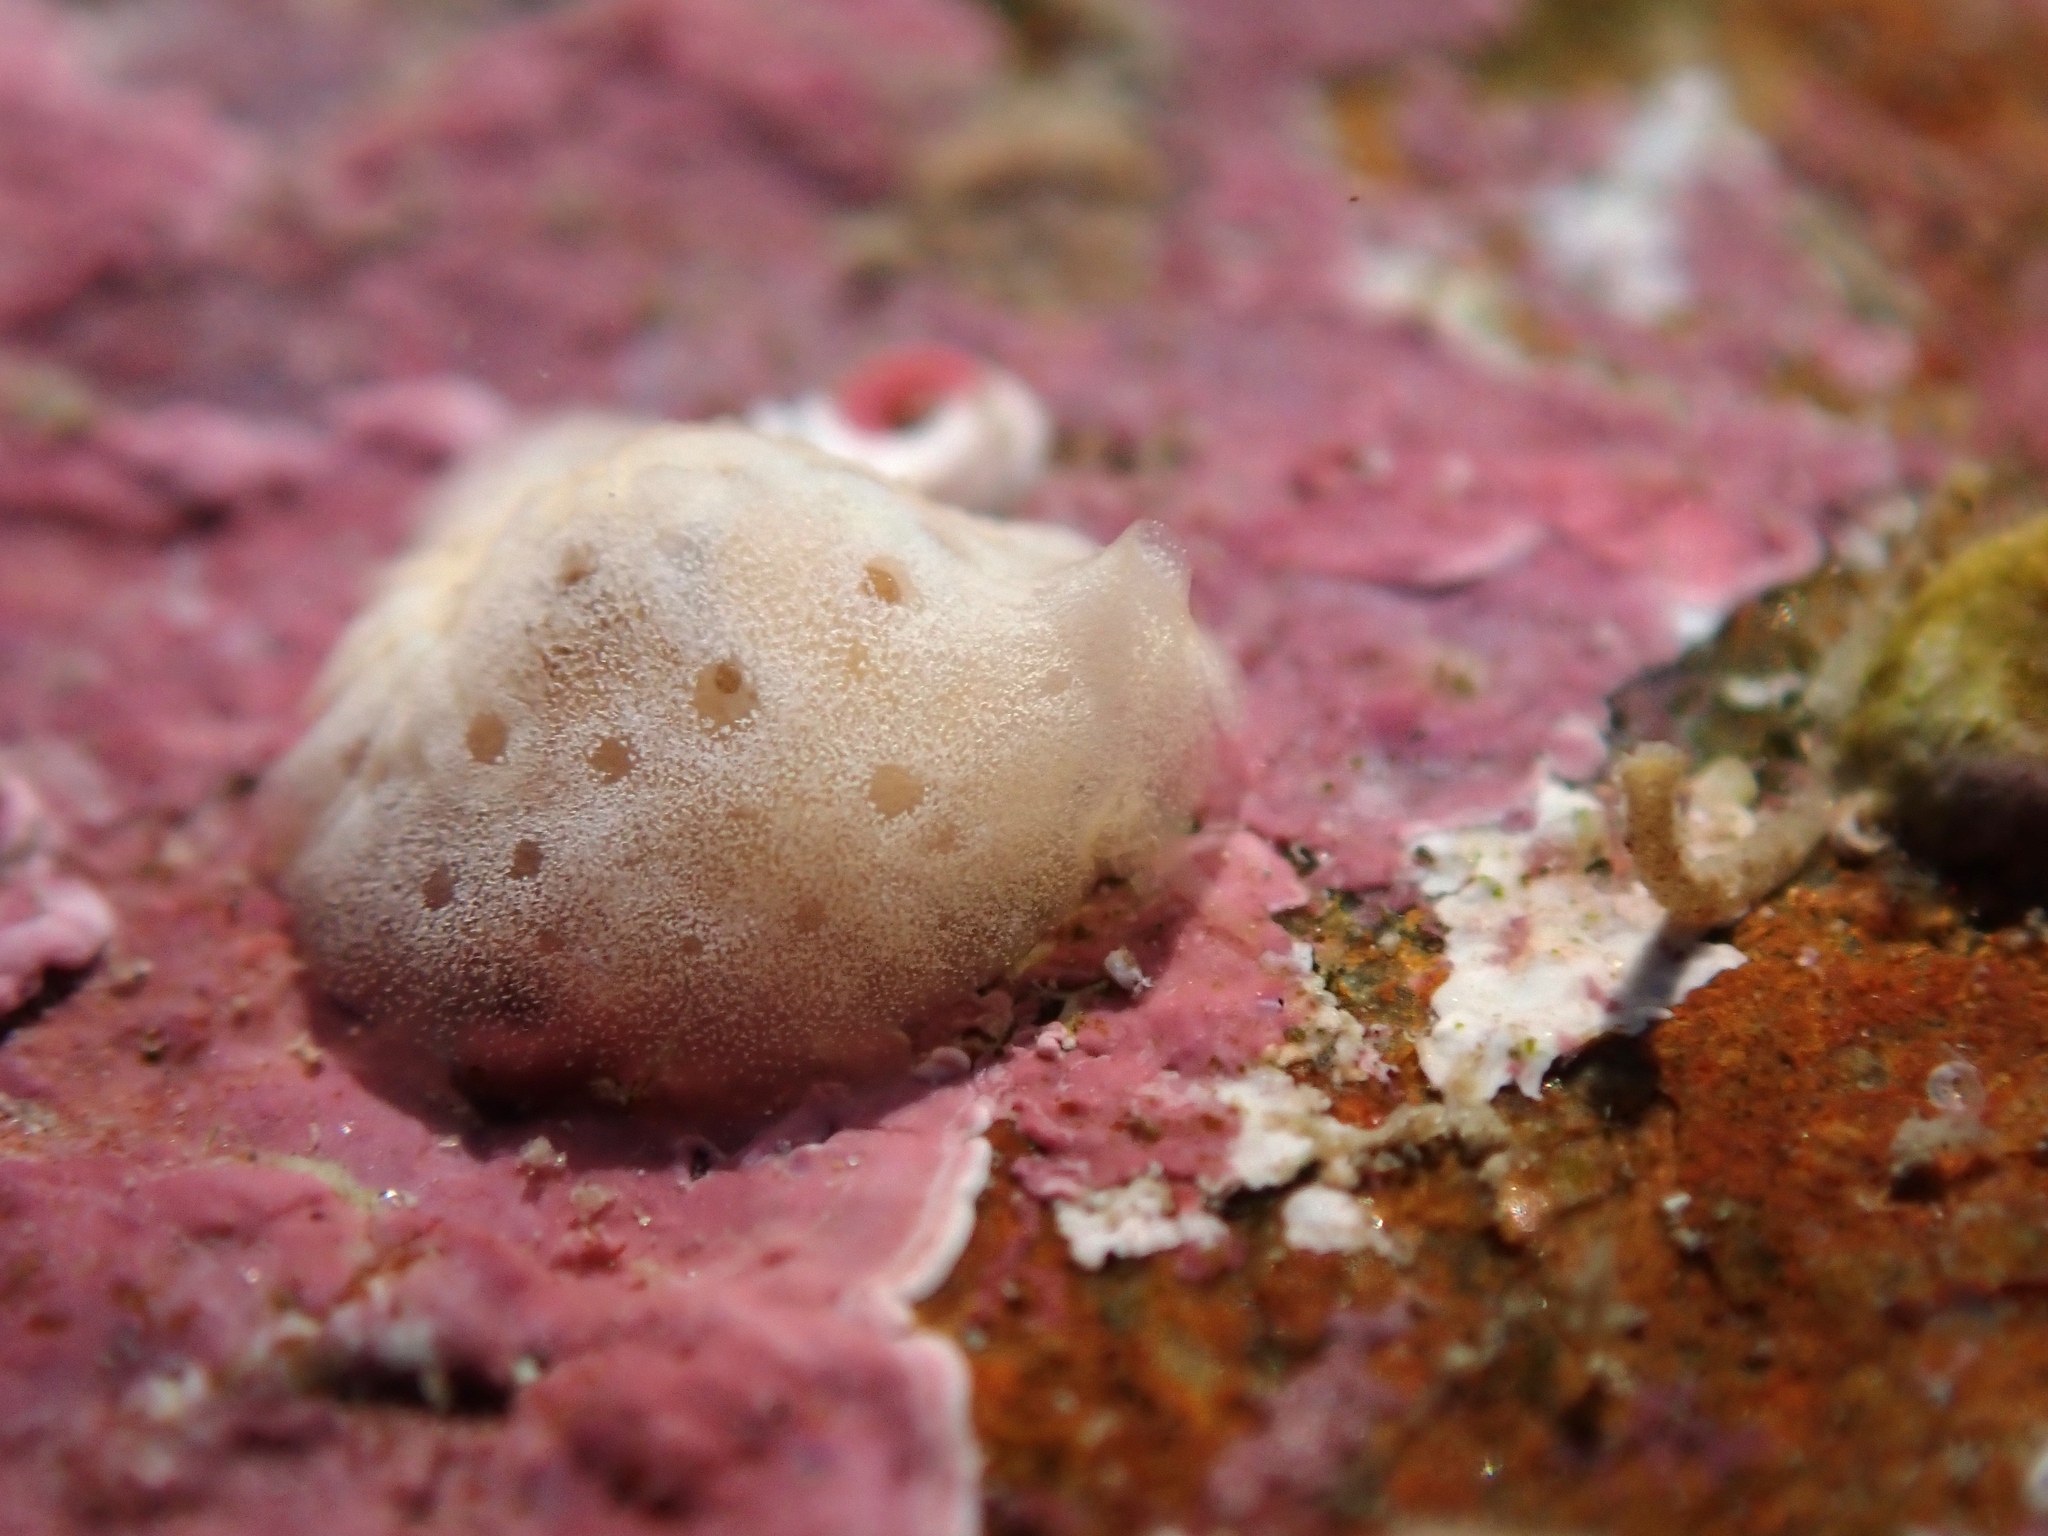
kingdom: Animalia
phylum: Mollusca
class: Gastropoda
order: Littorinimorpha
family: Velutinidae
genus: Lamellaria
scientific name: Lamellaria ophione
